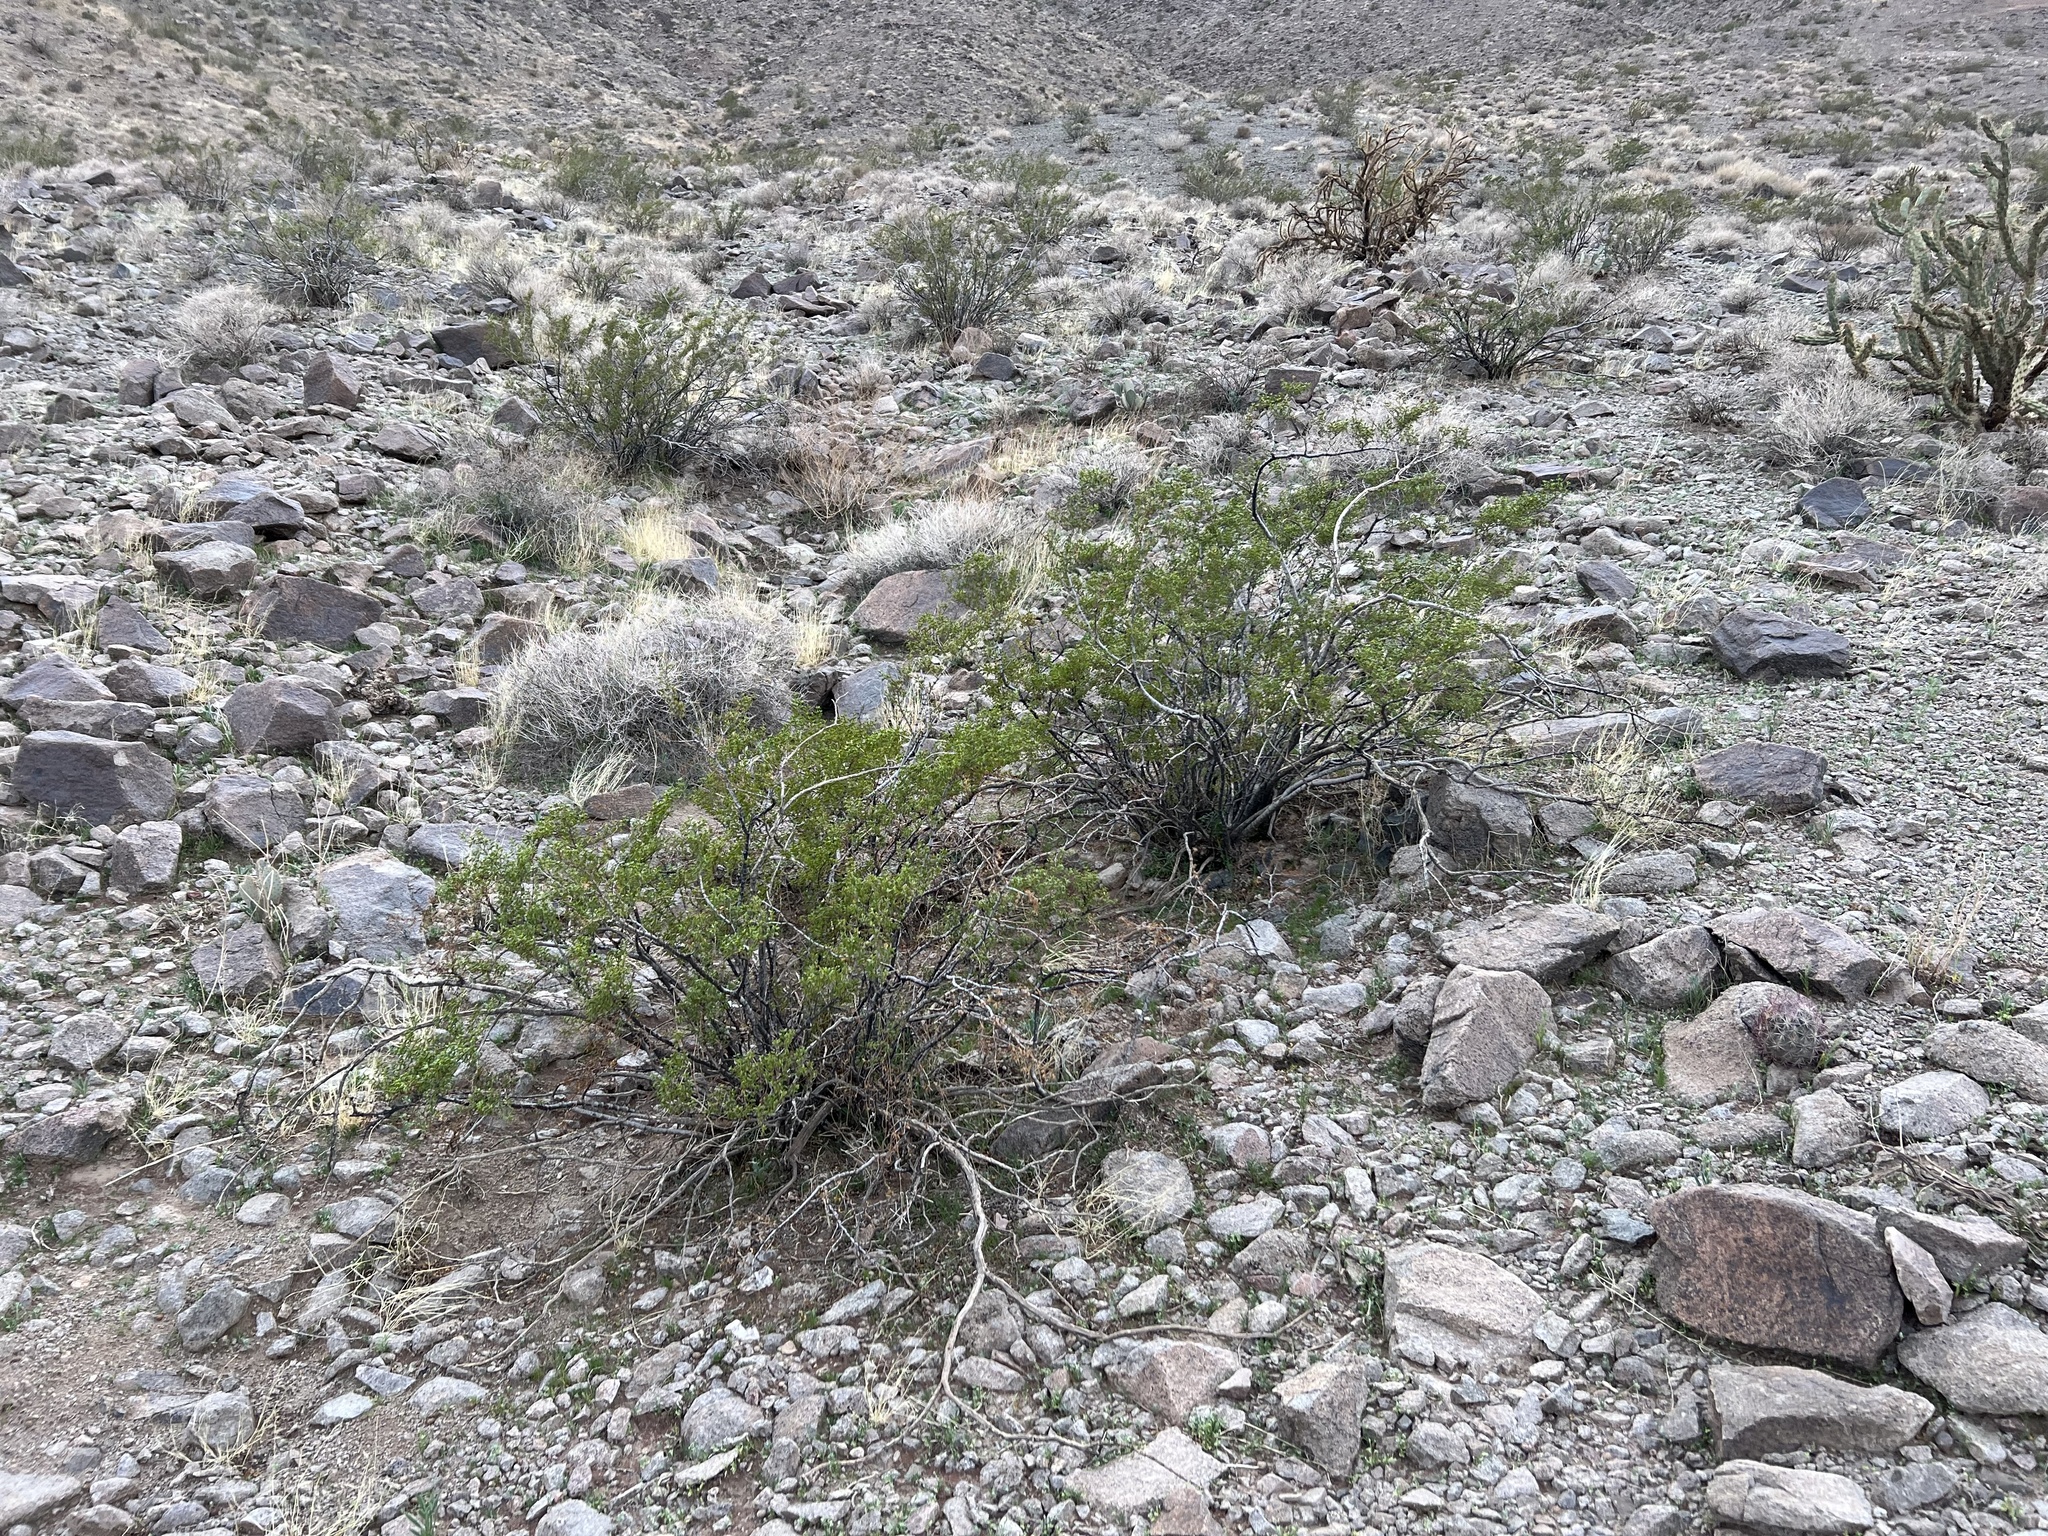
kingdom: Plantae
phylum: Tracheophyta
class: Magnoliopsida
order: Zygophyllales
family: Zygophyllaceae
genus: Larrea
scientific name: Larrea tridentata
